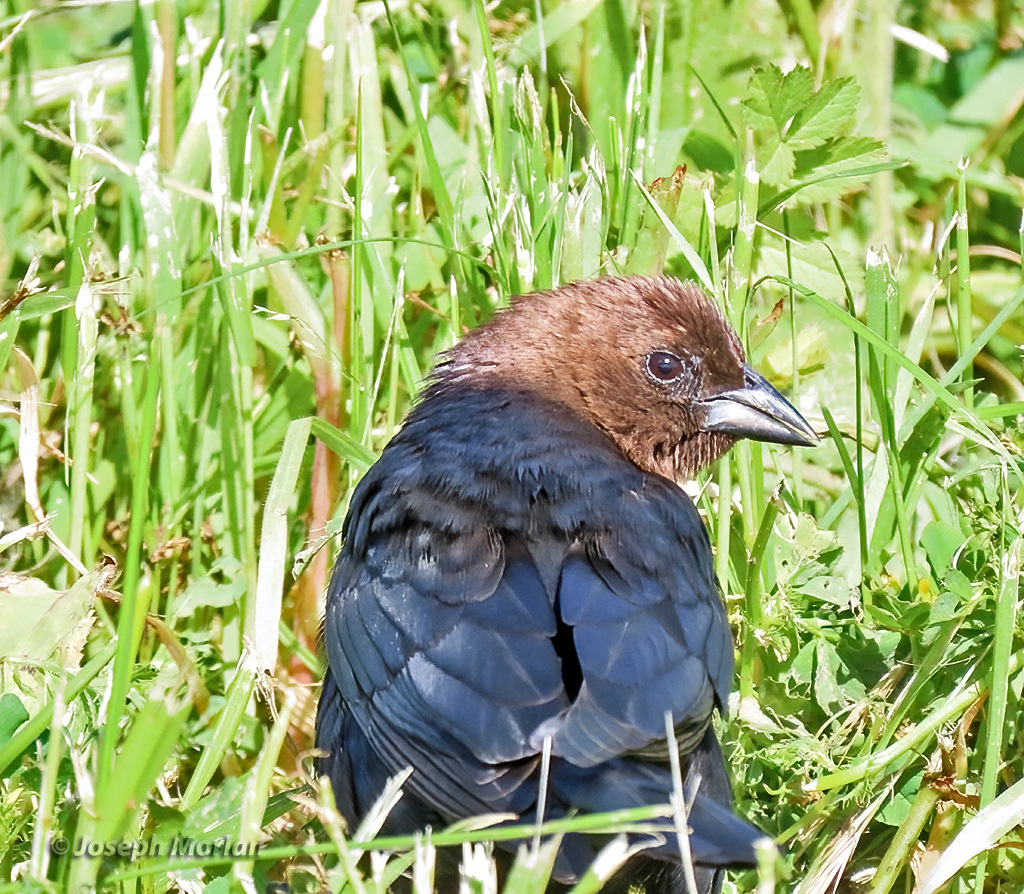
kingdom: Animalia
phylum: Chordata
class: Aves
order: Passeriformes
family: Icteridae
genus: Molothrus
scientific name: Molothrus ater
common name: Brown-headed cowbird
